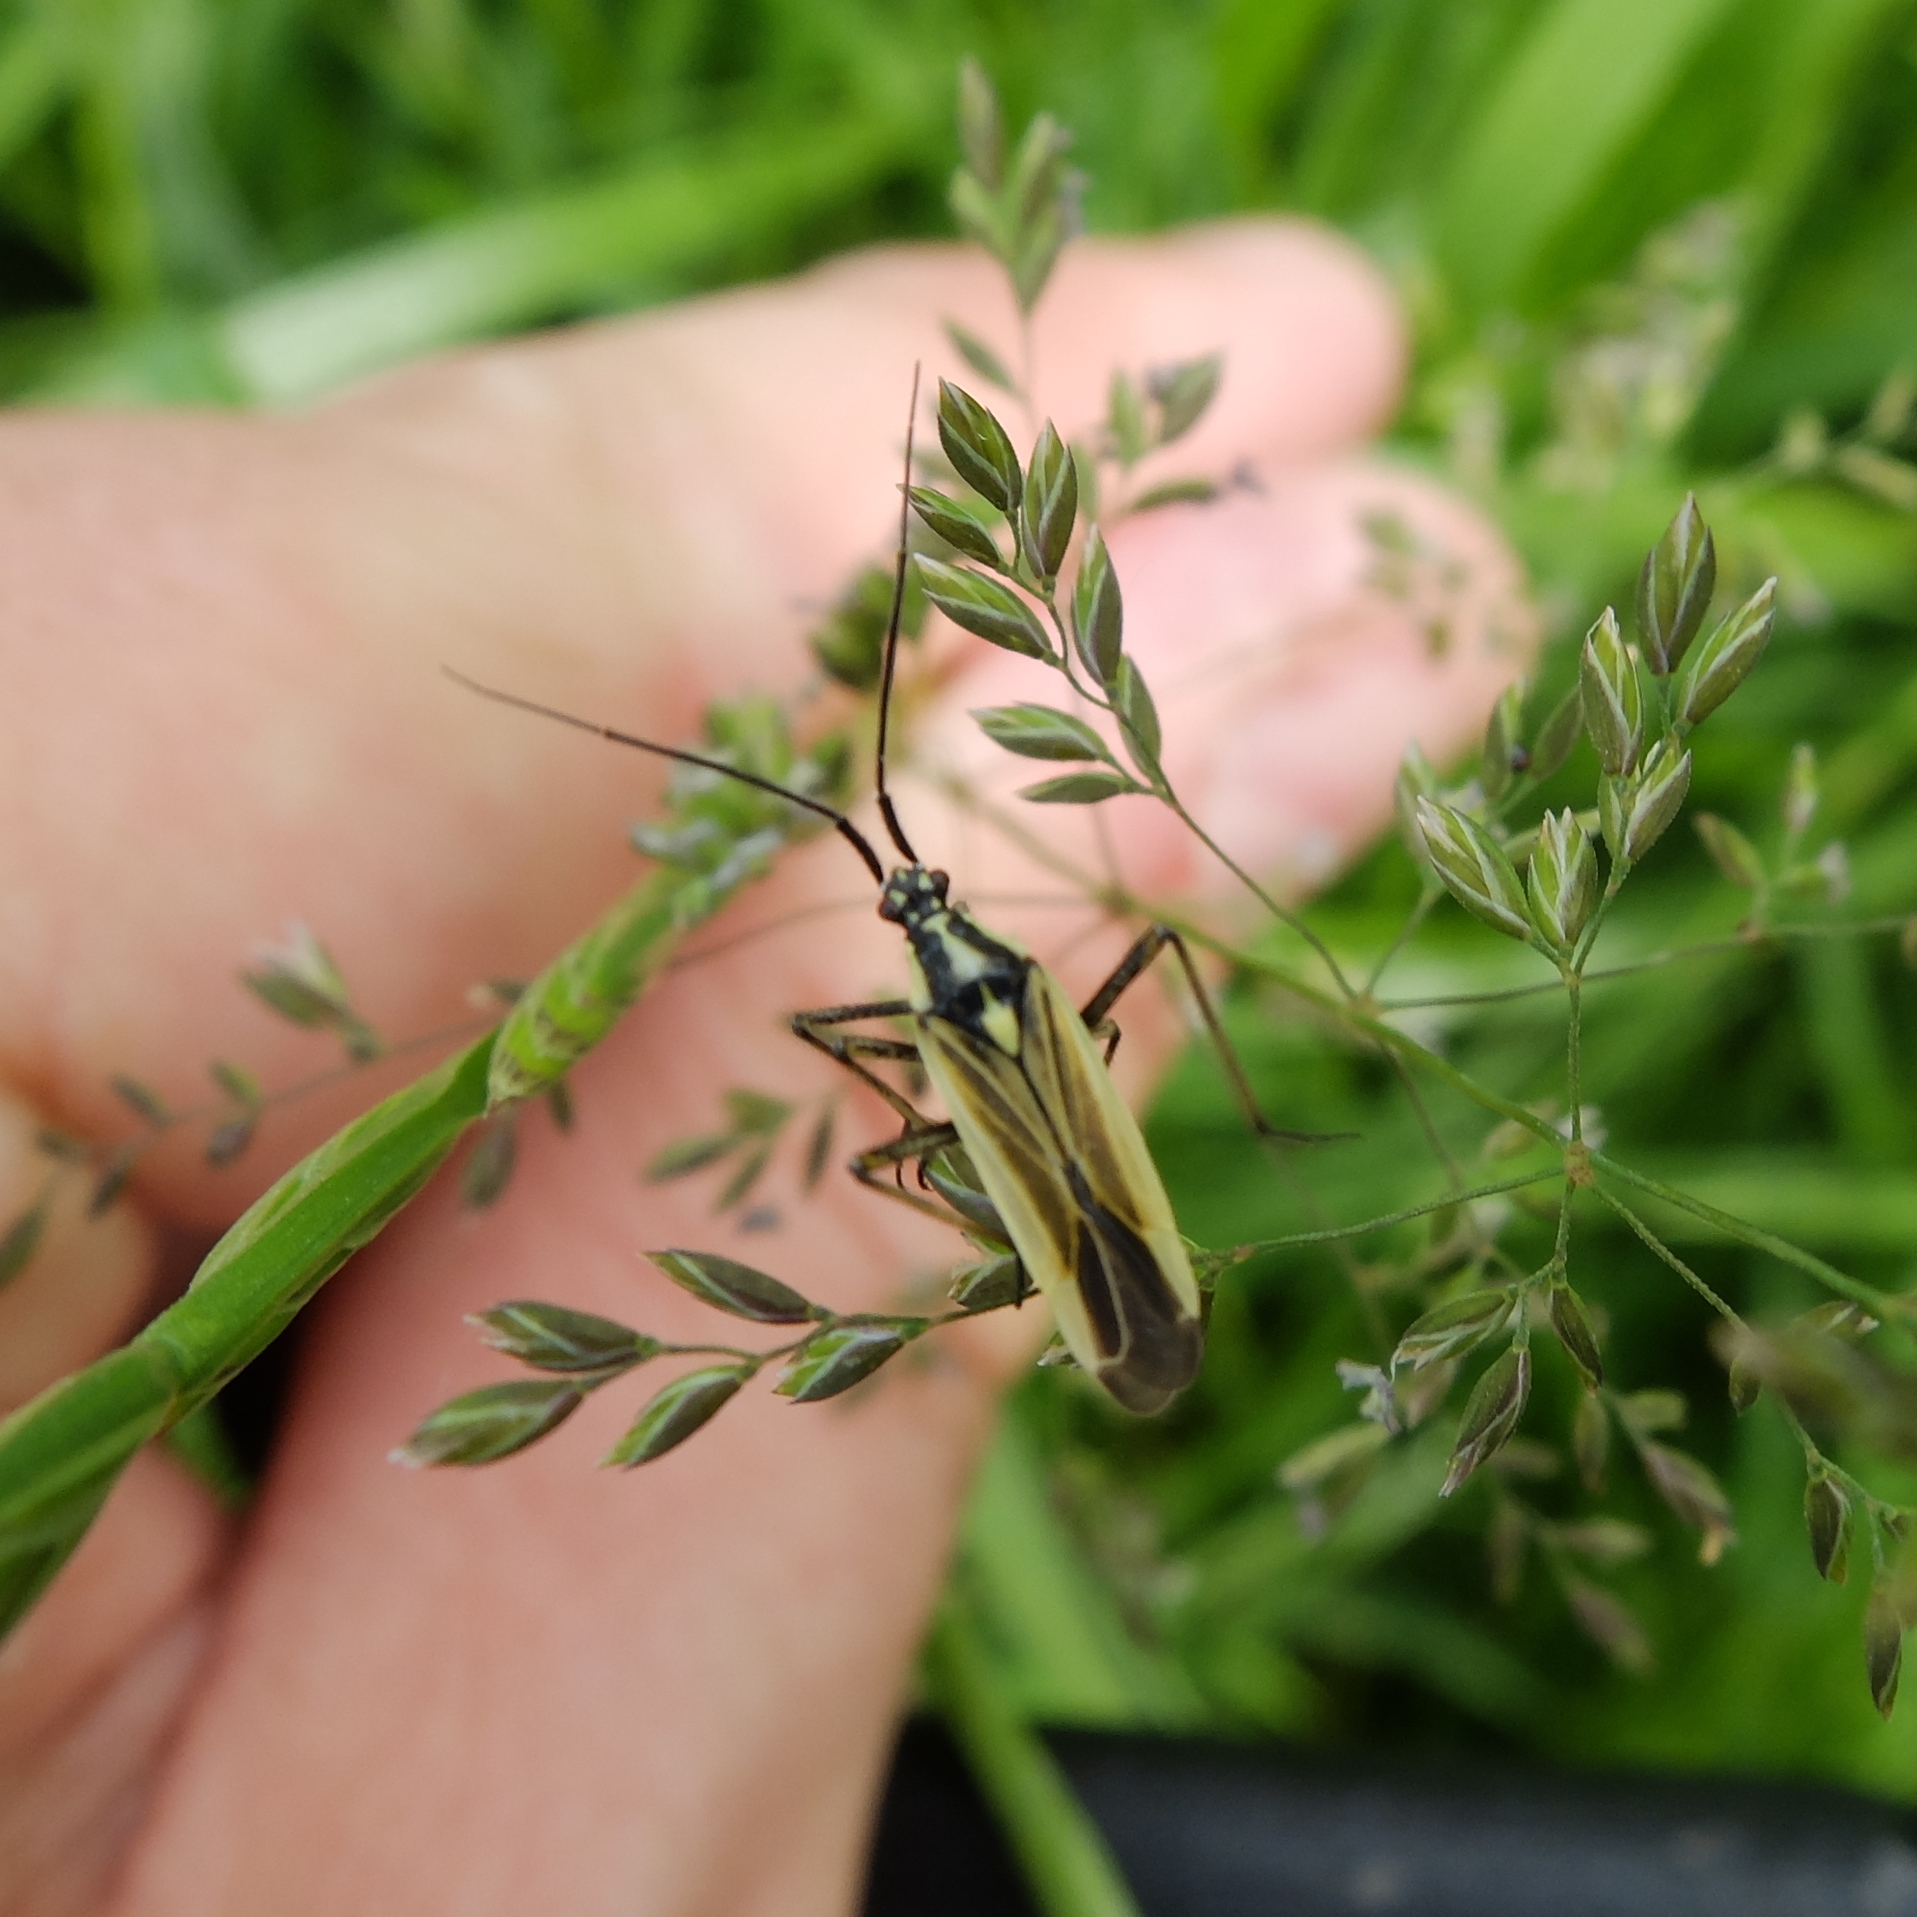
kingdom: Animalia
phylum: Arthropoda
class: Insecta
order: Hemiptera
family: Miridae
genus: Leptopterna
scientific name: Leptopterna dolabrata
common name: Meadow plant bug
